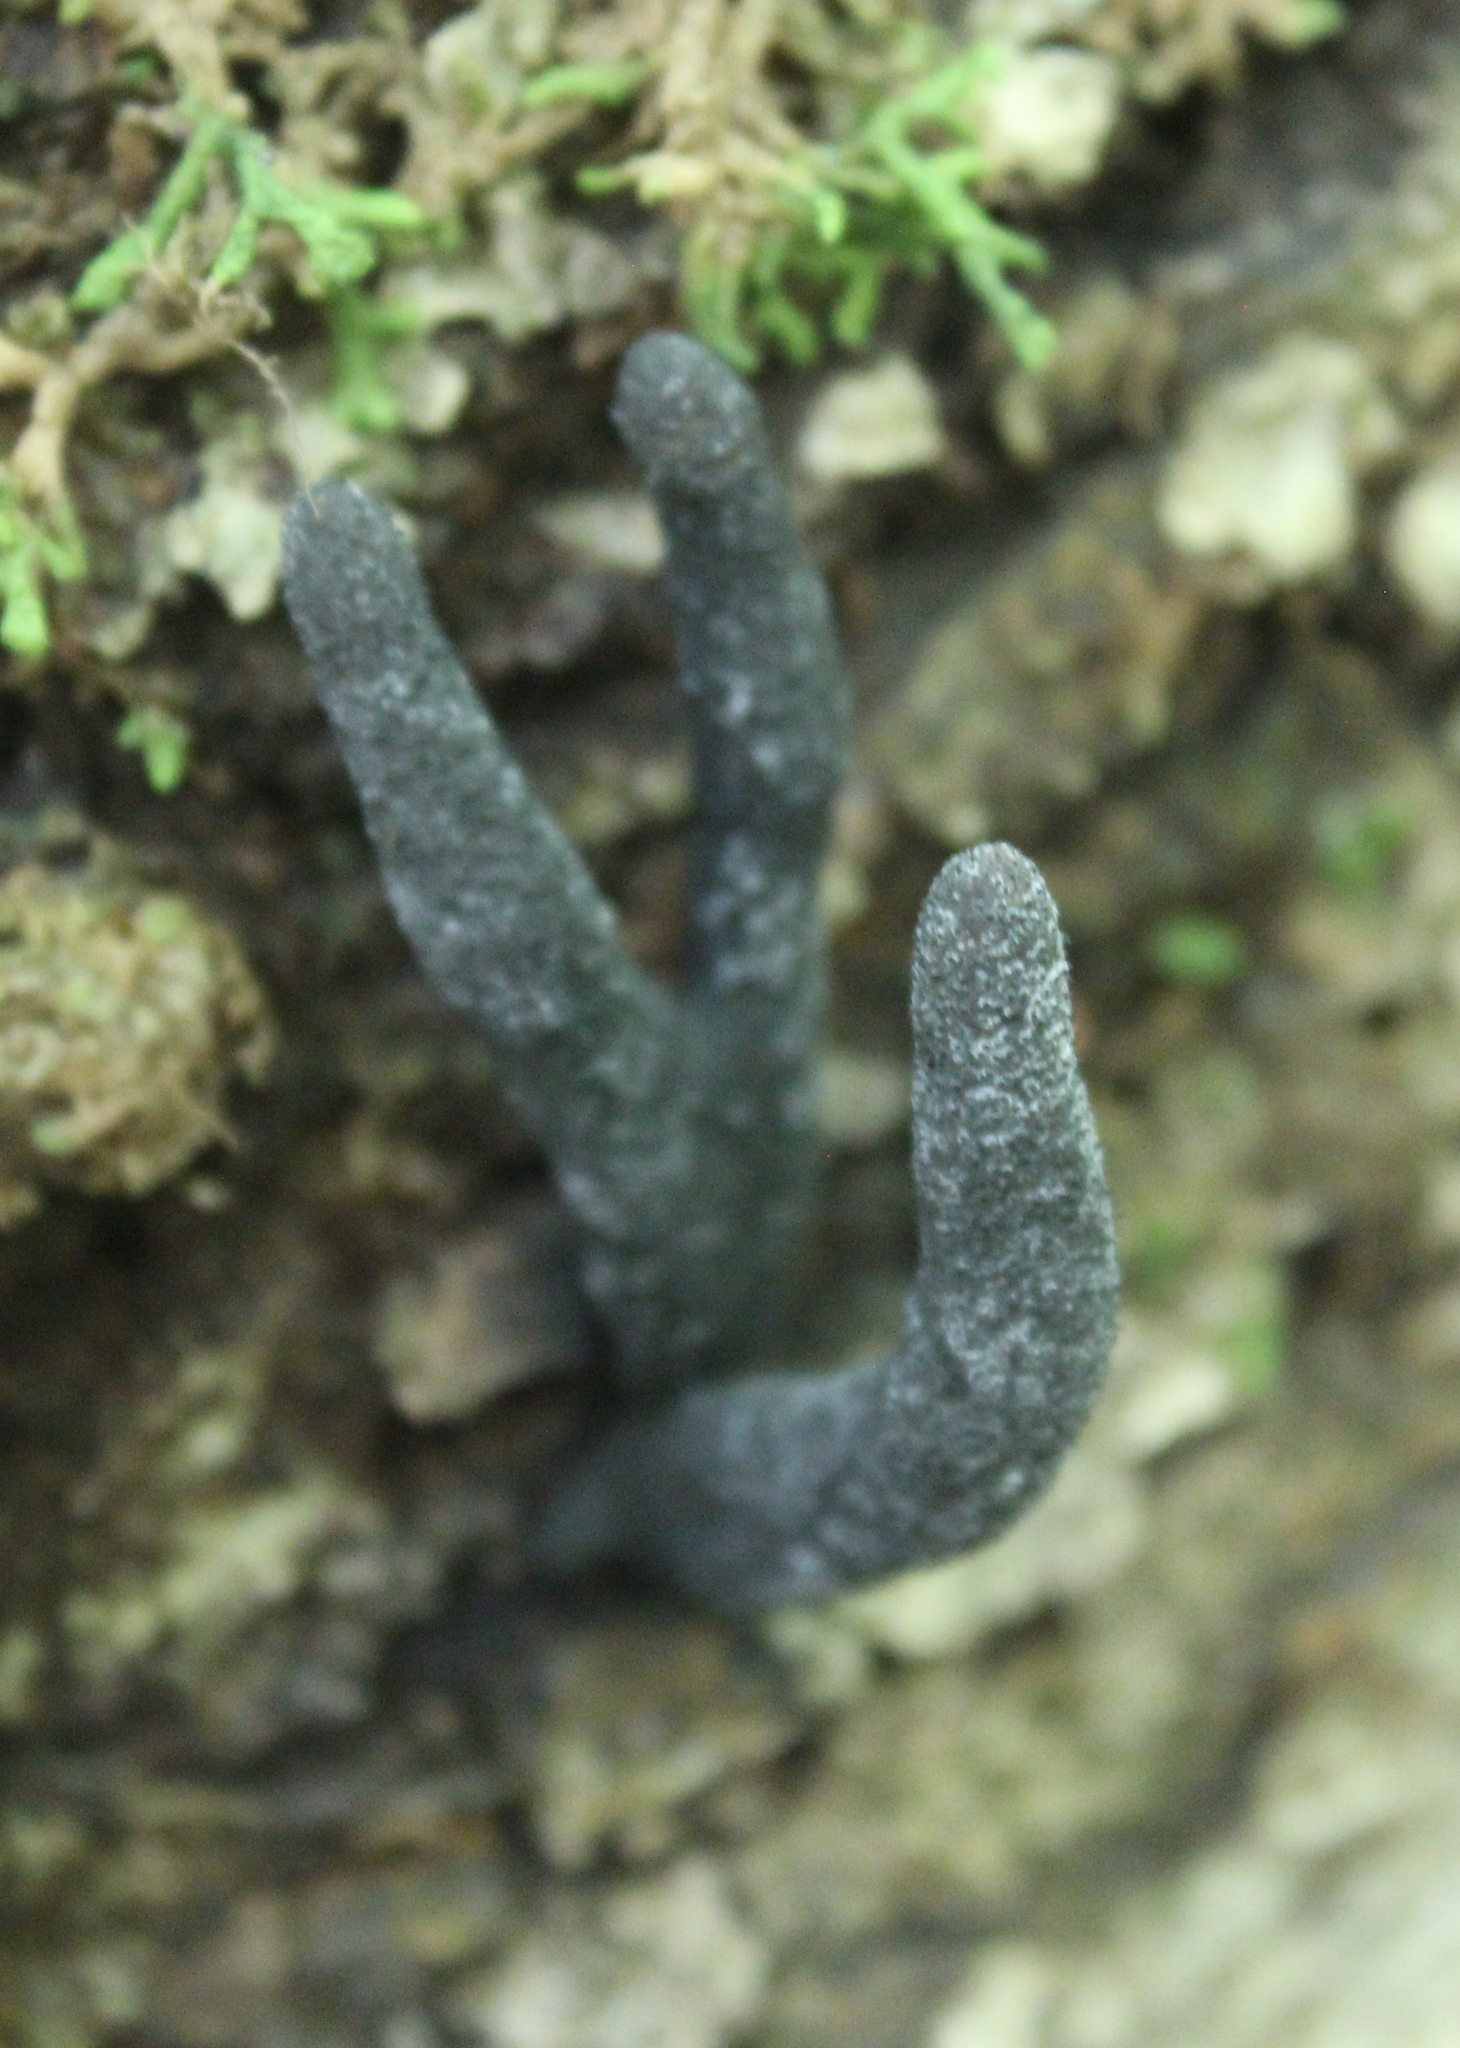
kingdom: Fungi
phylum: Ascomycota
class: Sordariomycetes
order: Xylariales
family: Xylariaceae
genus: Xylaria
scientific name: Xylaria polymorpha
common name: Dead man's fingers
